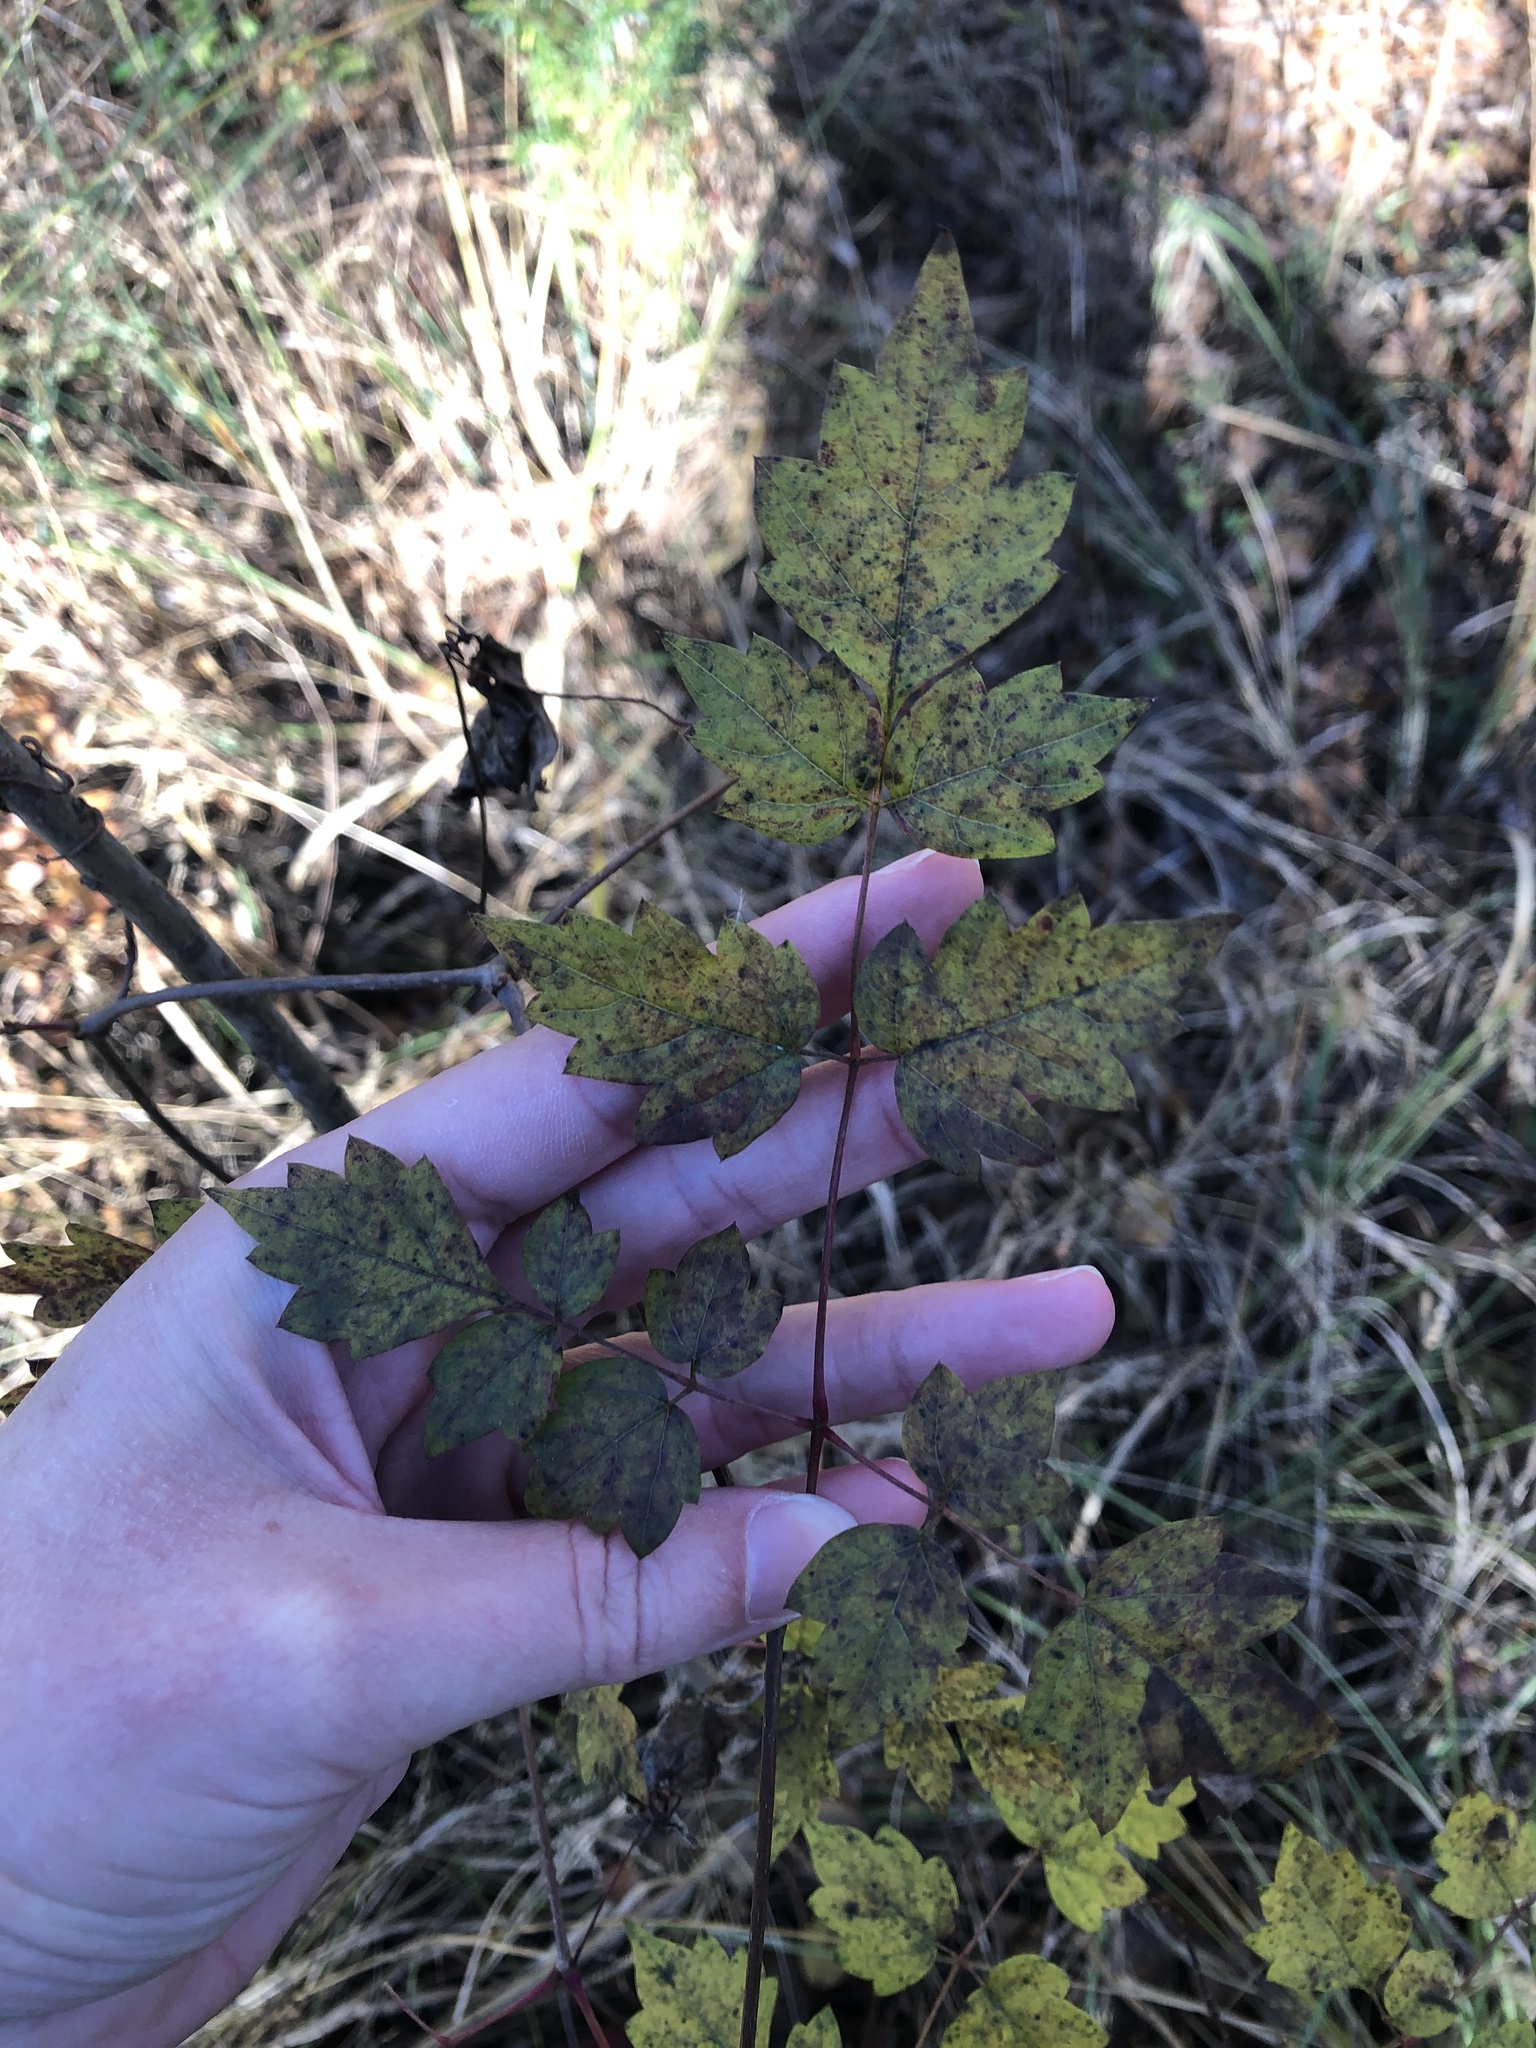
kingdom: Plantae
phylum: Tracheophyta
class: Magnoliopsida
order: Vitales
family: Vitaceae
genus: Nekemias
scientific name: Nekemias arborea
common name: Peppervine
